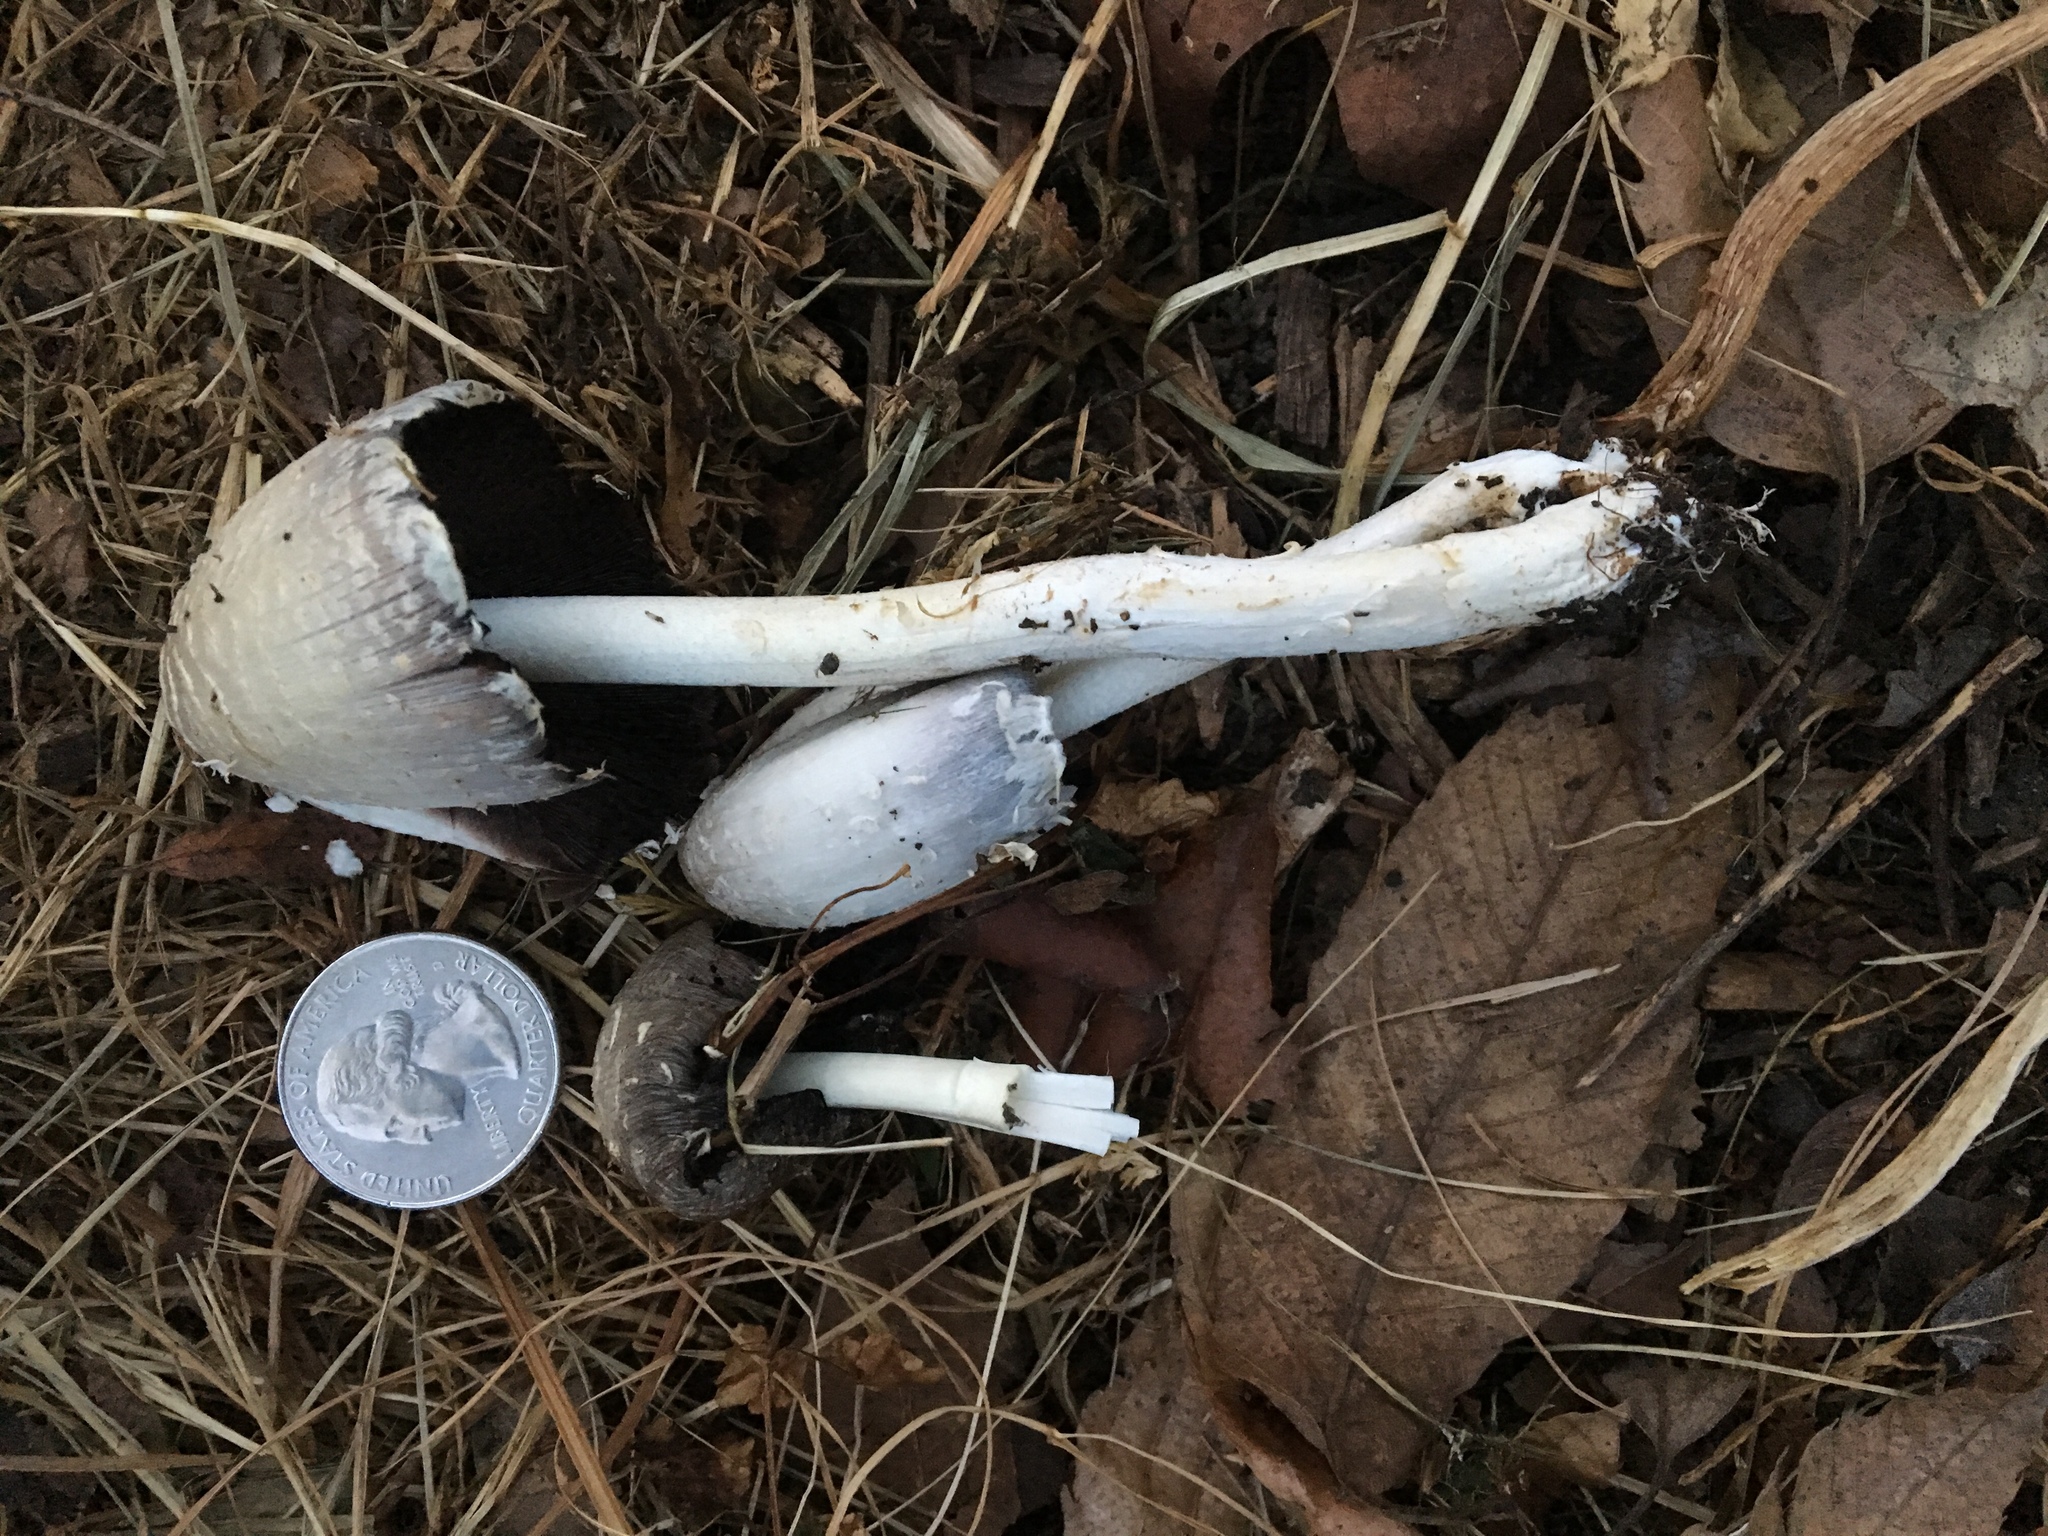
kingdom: Fungi
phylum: Basidiomycota
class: Agaricomycetes
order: Agaricales
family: Agaricaceae
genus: Coprinus
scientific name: Coprinus comatus
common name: Lawyer's wig
